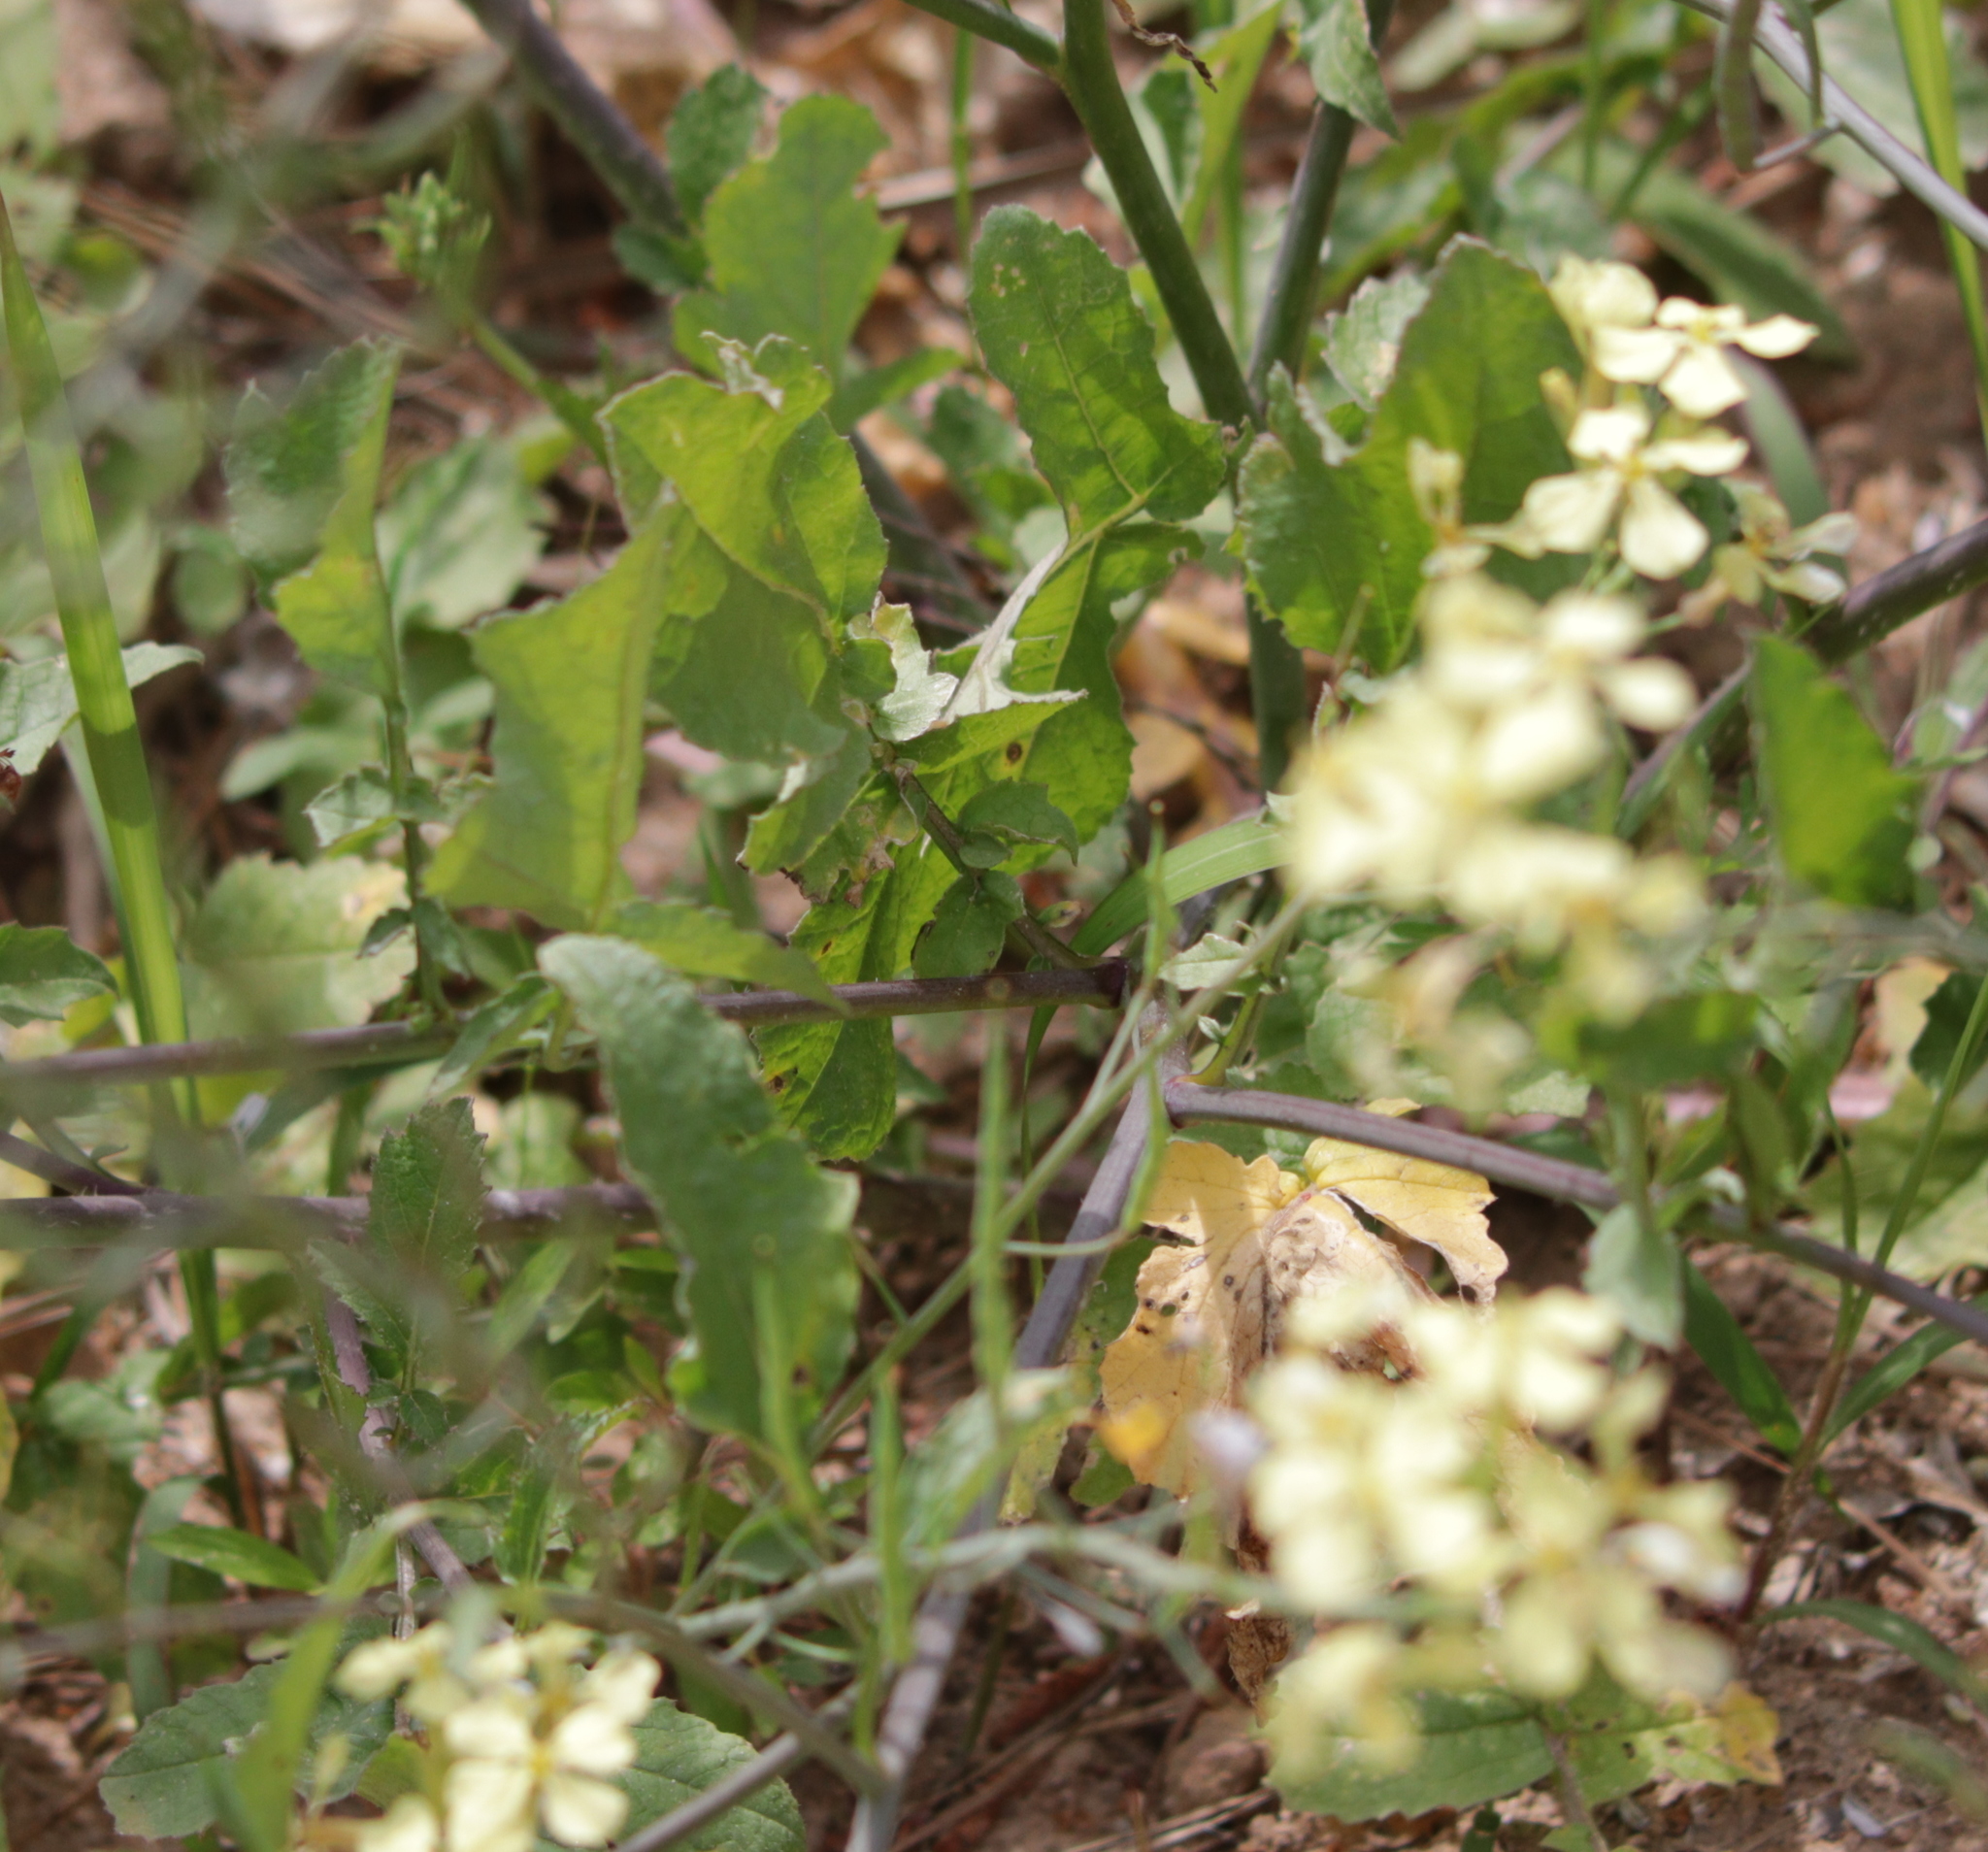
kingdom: Plantae
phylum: Tracheophyta
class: Magnoliopsida
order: Brassicales
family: Brassicaceae
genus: Raphanus
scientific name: Raphanus raphanistrum
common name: Wild radish
